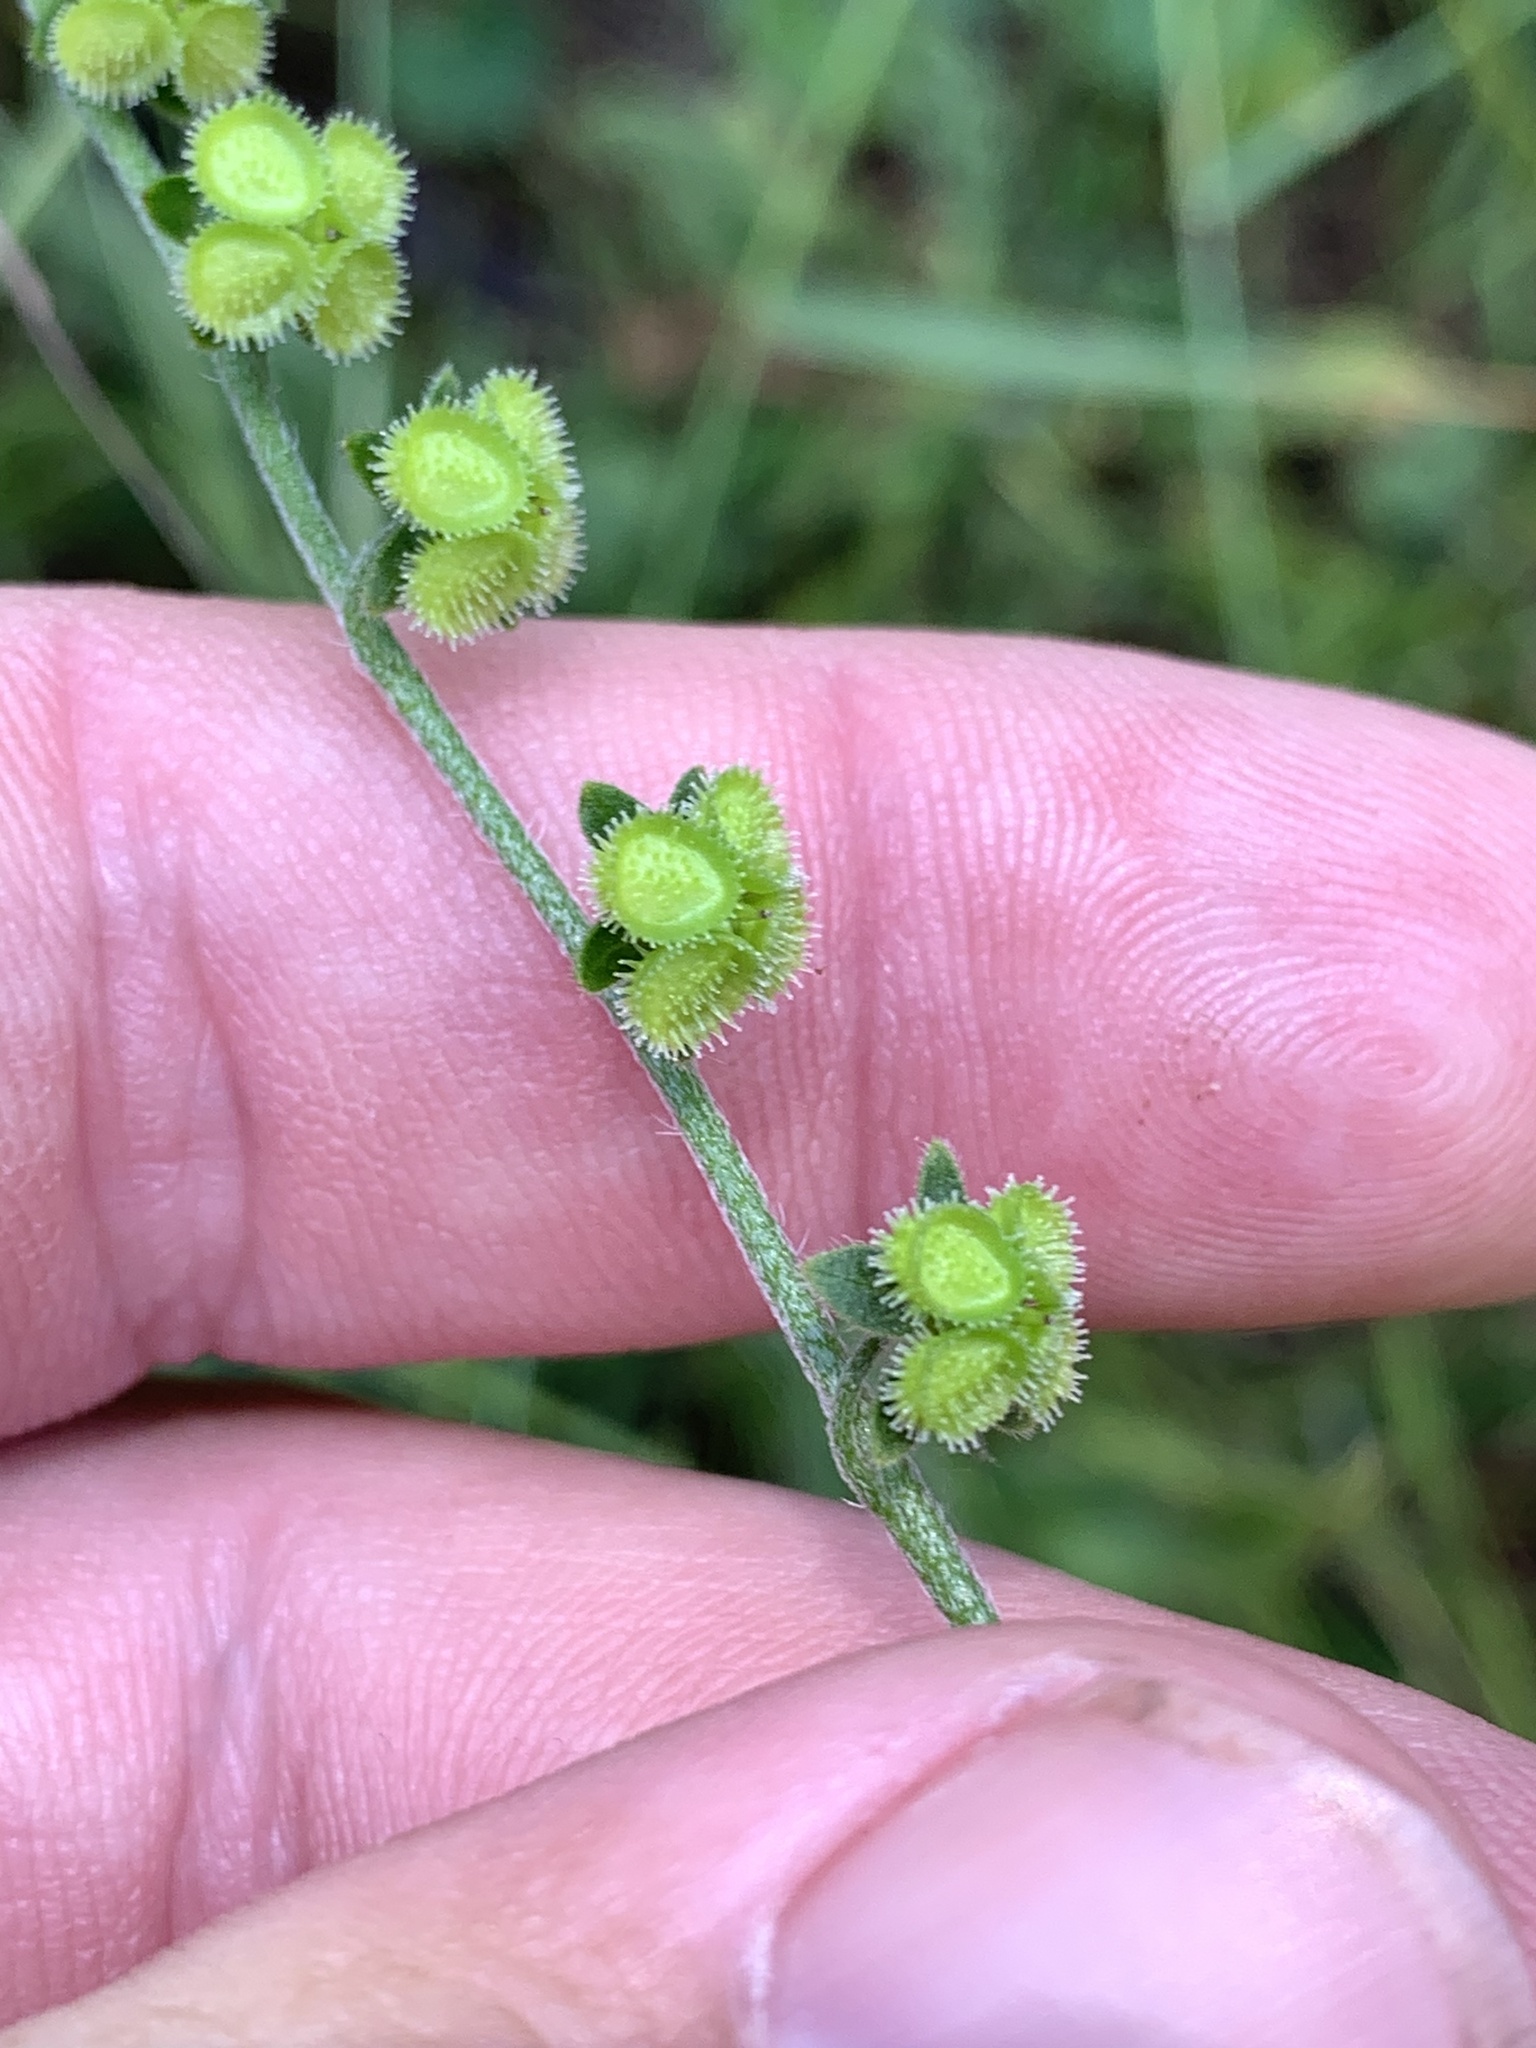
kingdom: Plantae
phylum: Tracheophyta
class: Magnoliopsida
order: Boraginales
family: Boraginaceae
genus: Cynoglossum
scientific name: Cynoglossum australe
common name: Australian hound's-tongue
